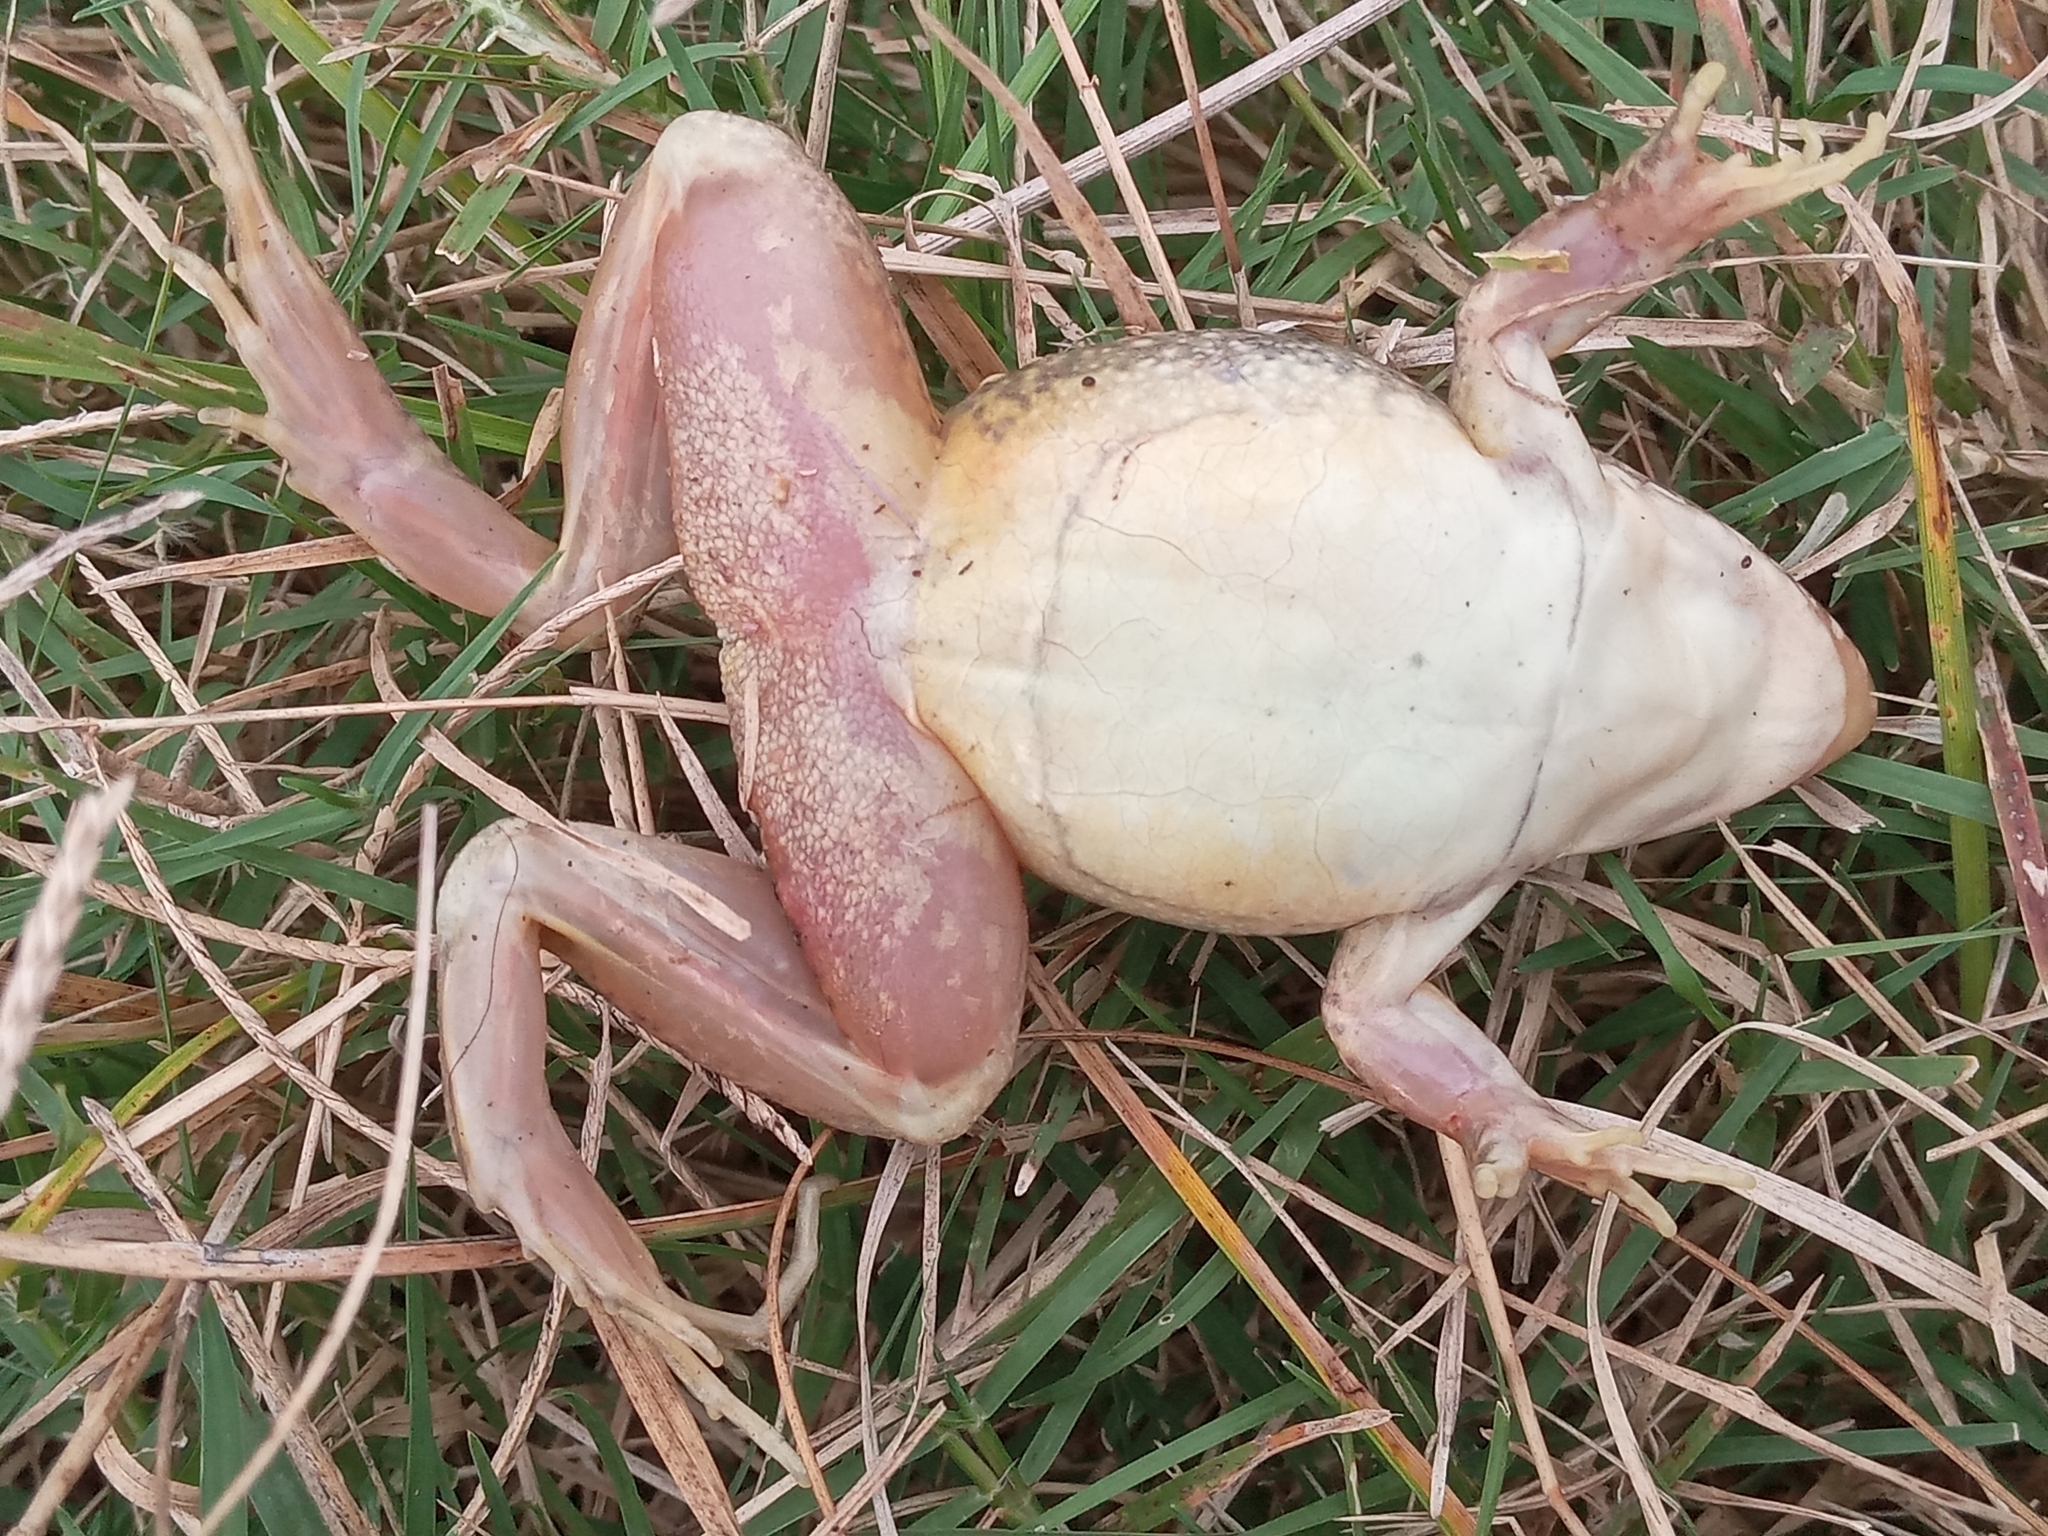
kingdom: Animalia
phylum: Chordata
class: Amphibia
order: Anura
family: Leptodactylidae
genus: Leptodactylus
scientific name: Leptodactylus macrosternum
